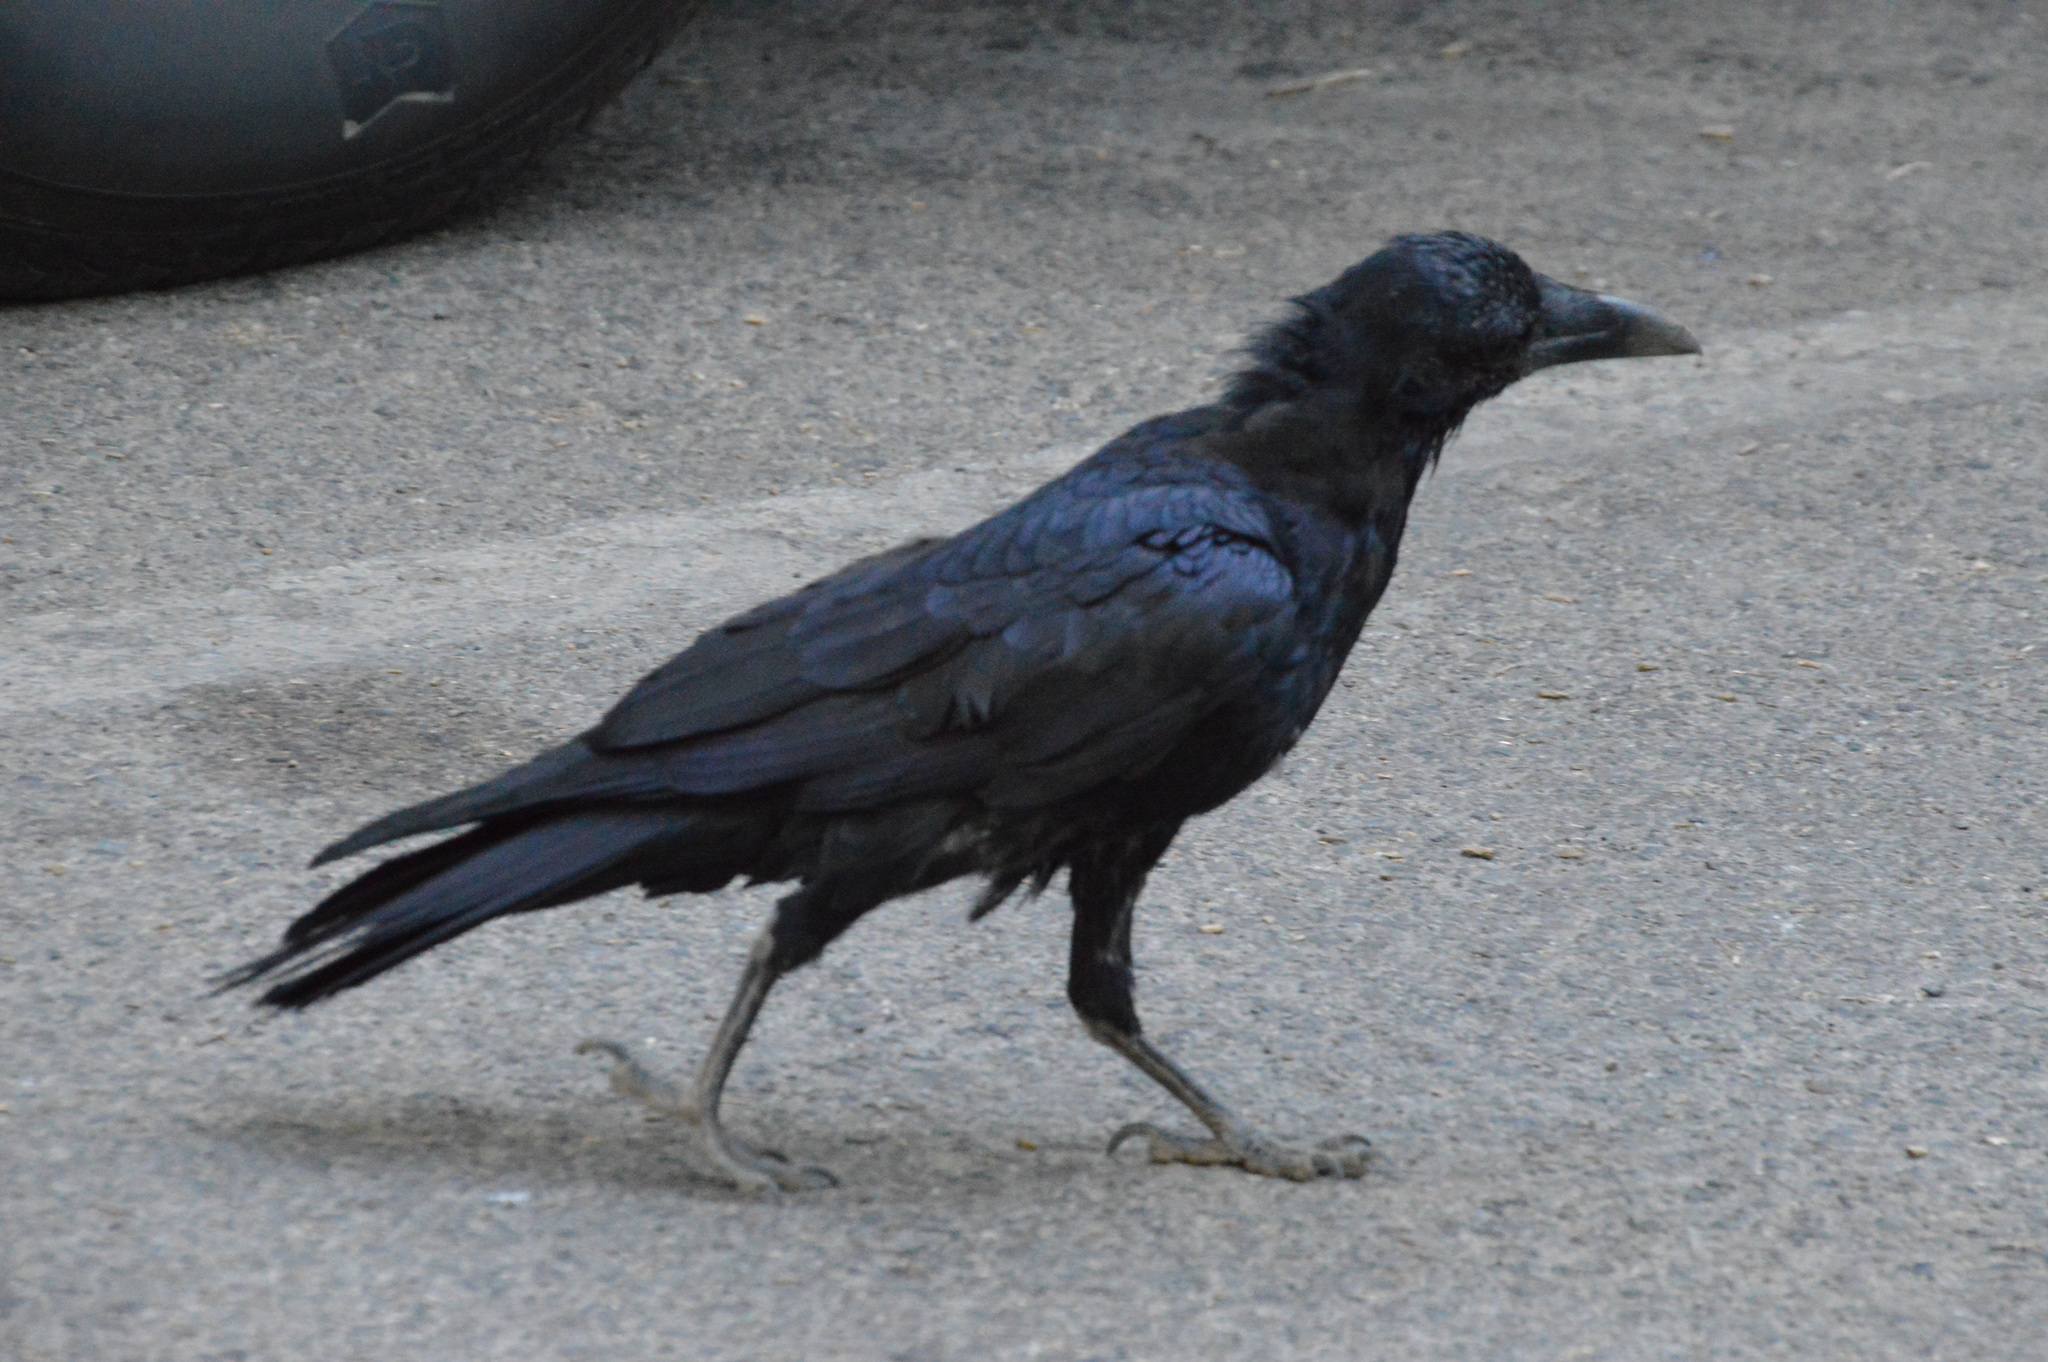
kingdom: Animalia
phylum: Chordata
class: Aves
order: Passeriformes
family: Corvidae
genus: Corvus
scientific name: Corvus corax
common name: Common raven
